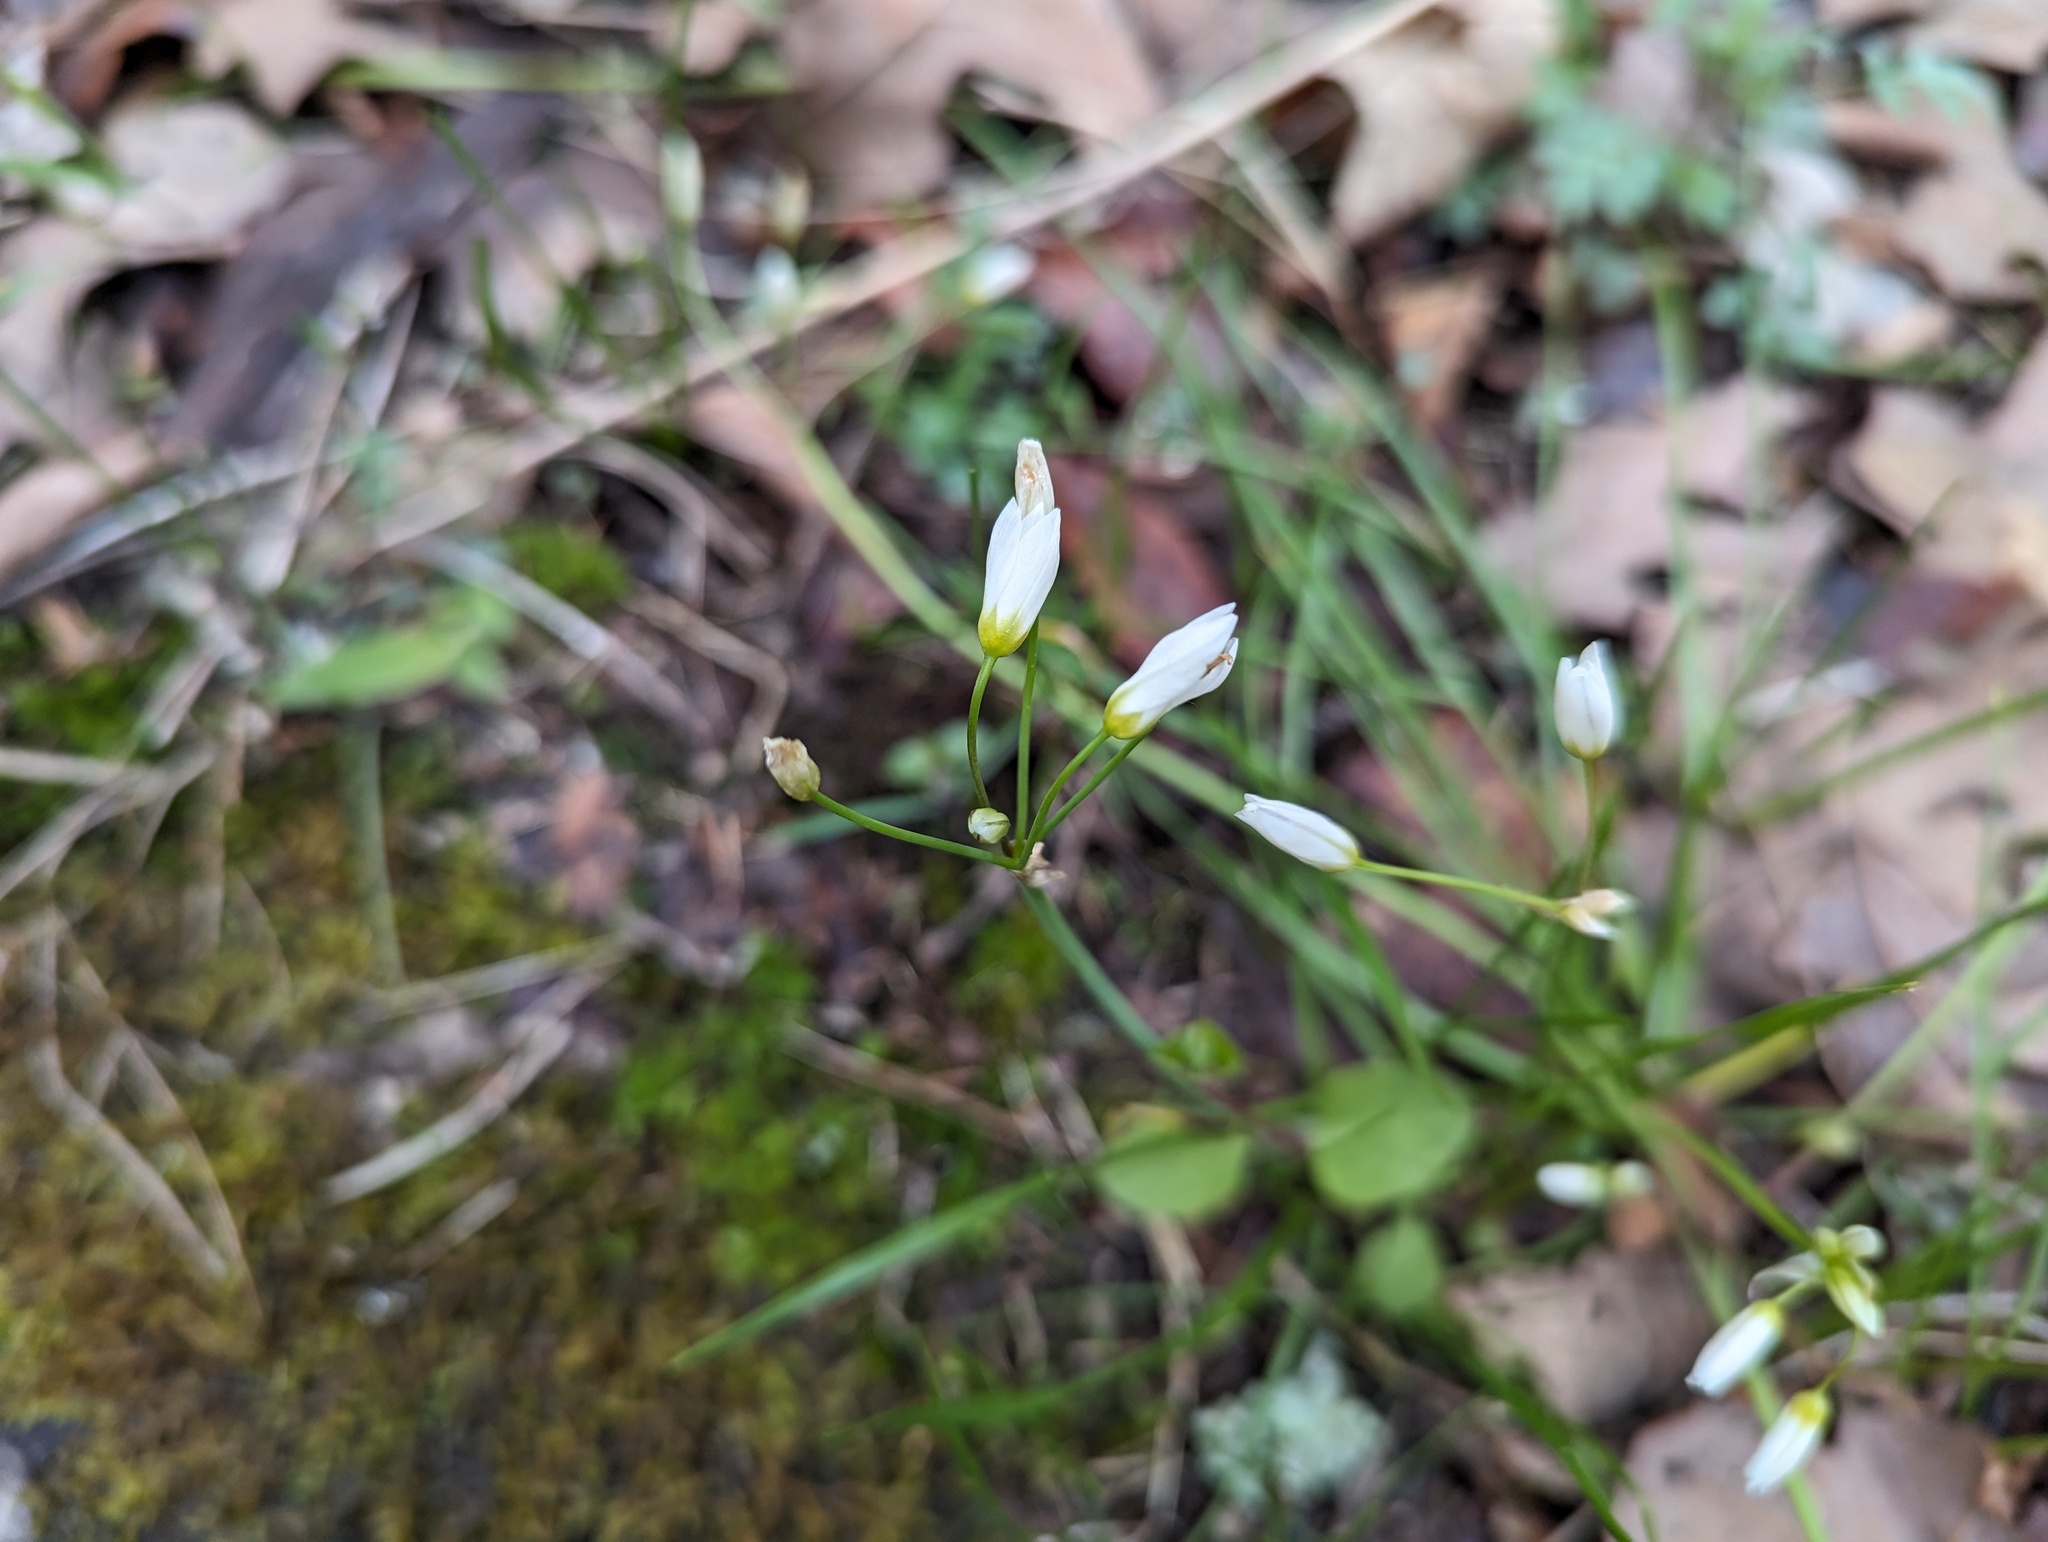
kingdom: Plantae
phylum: Tracheophyta
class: Liliopsida
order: Asparagales
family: Amaryllidaceae
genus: Nothoscordum
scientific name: Nothoscordum bivalve
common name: Crow-poison
